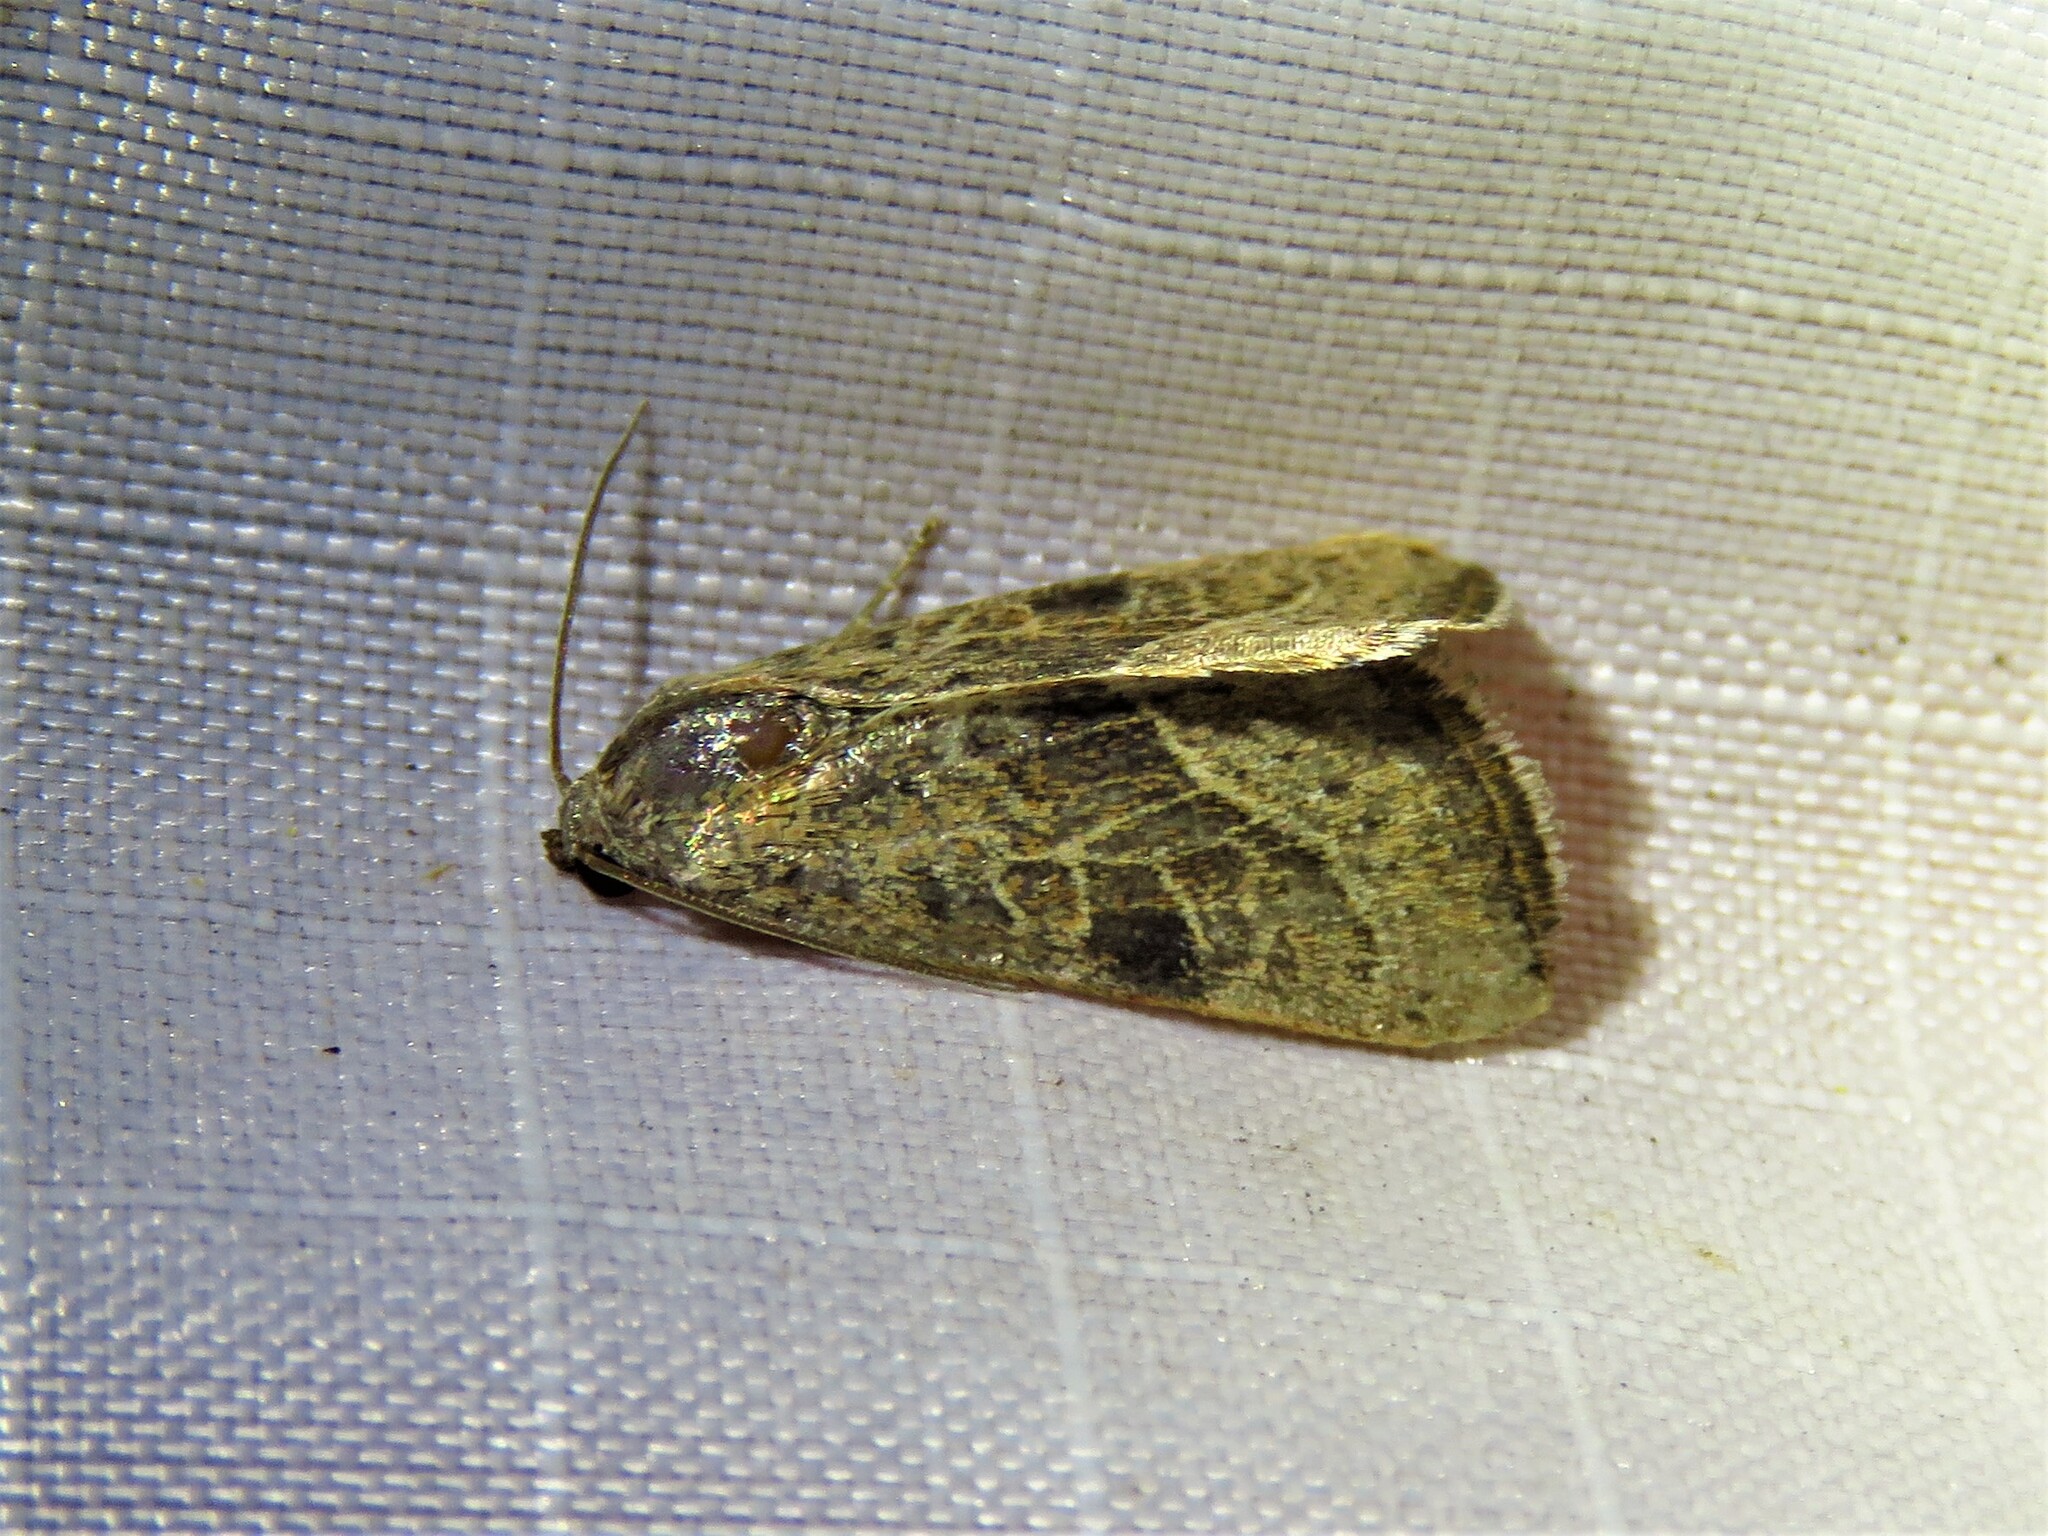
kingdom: Animalia
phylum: Arthropoda
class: Insecta
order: Lepidoptera
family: Noctuidae
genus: Galgula
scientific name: Galgula partita
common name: Wedgeling
